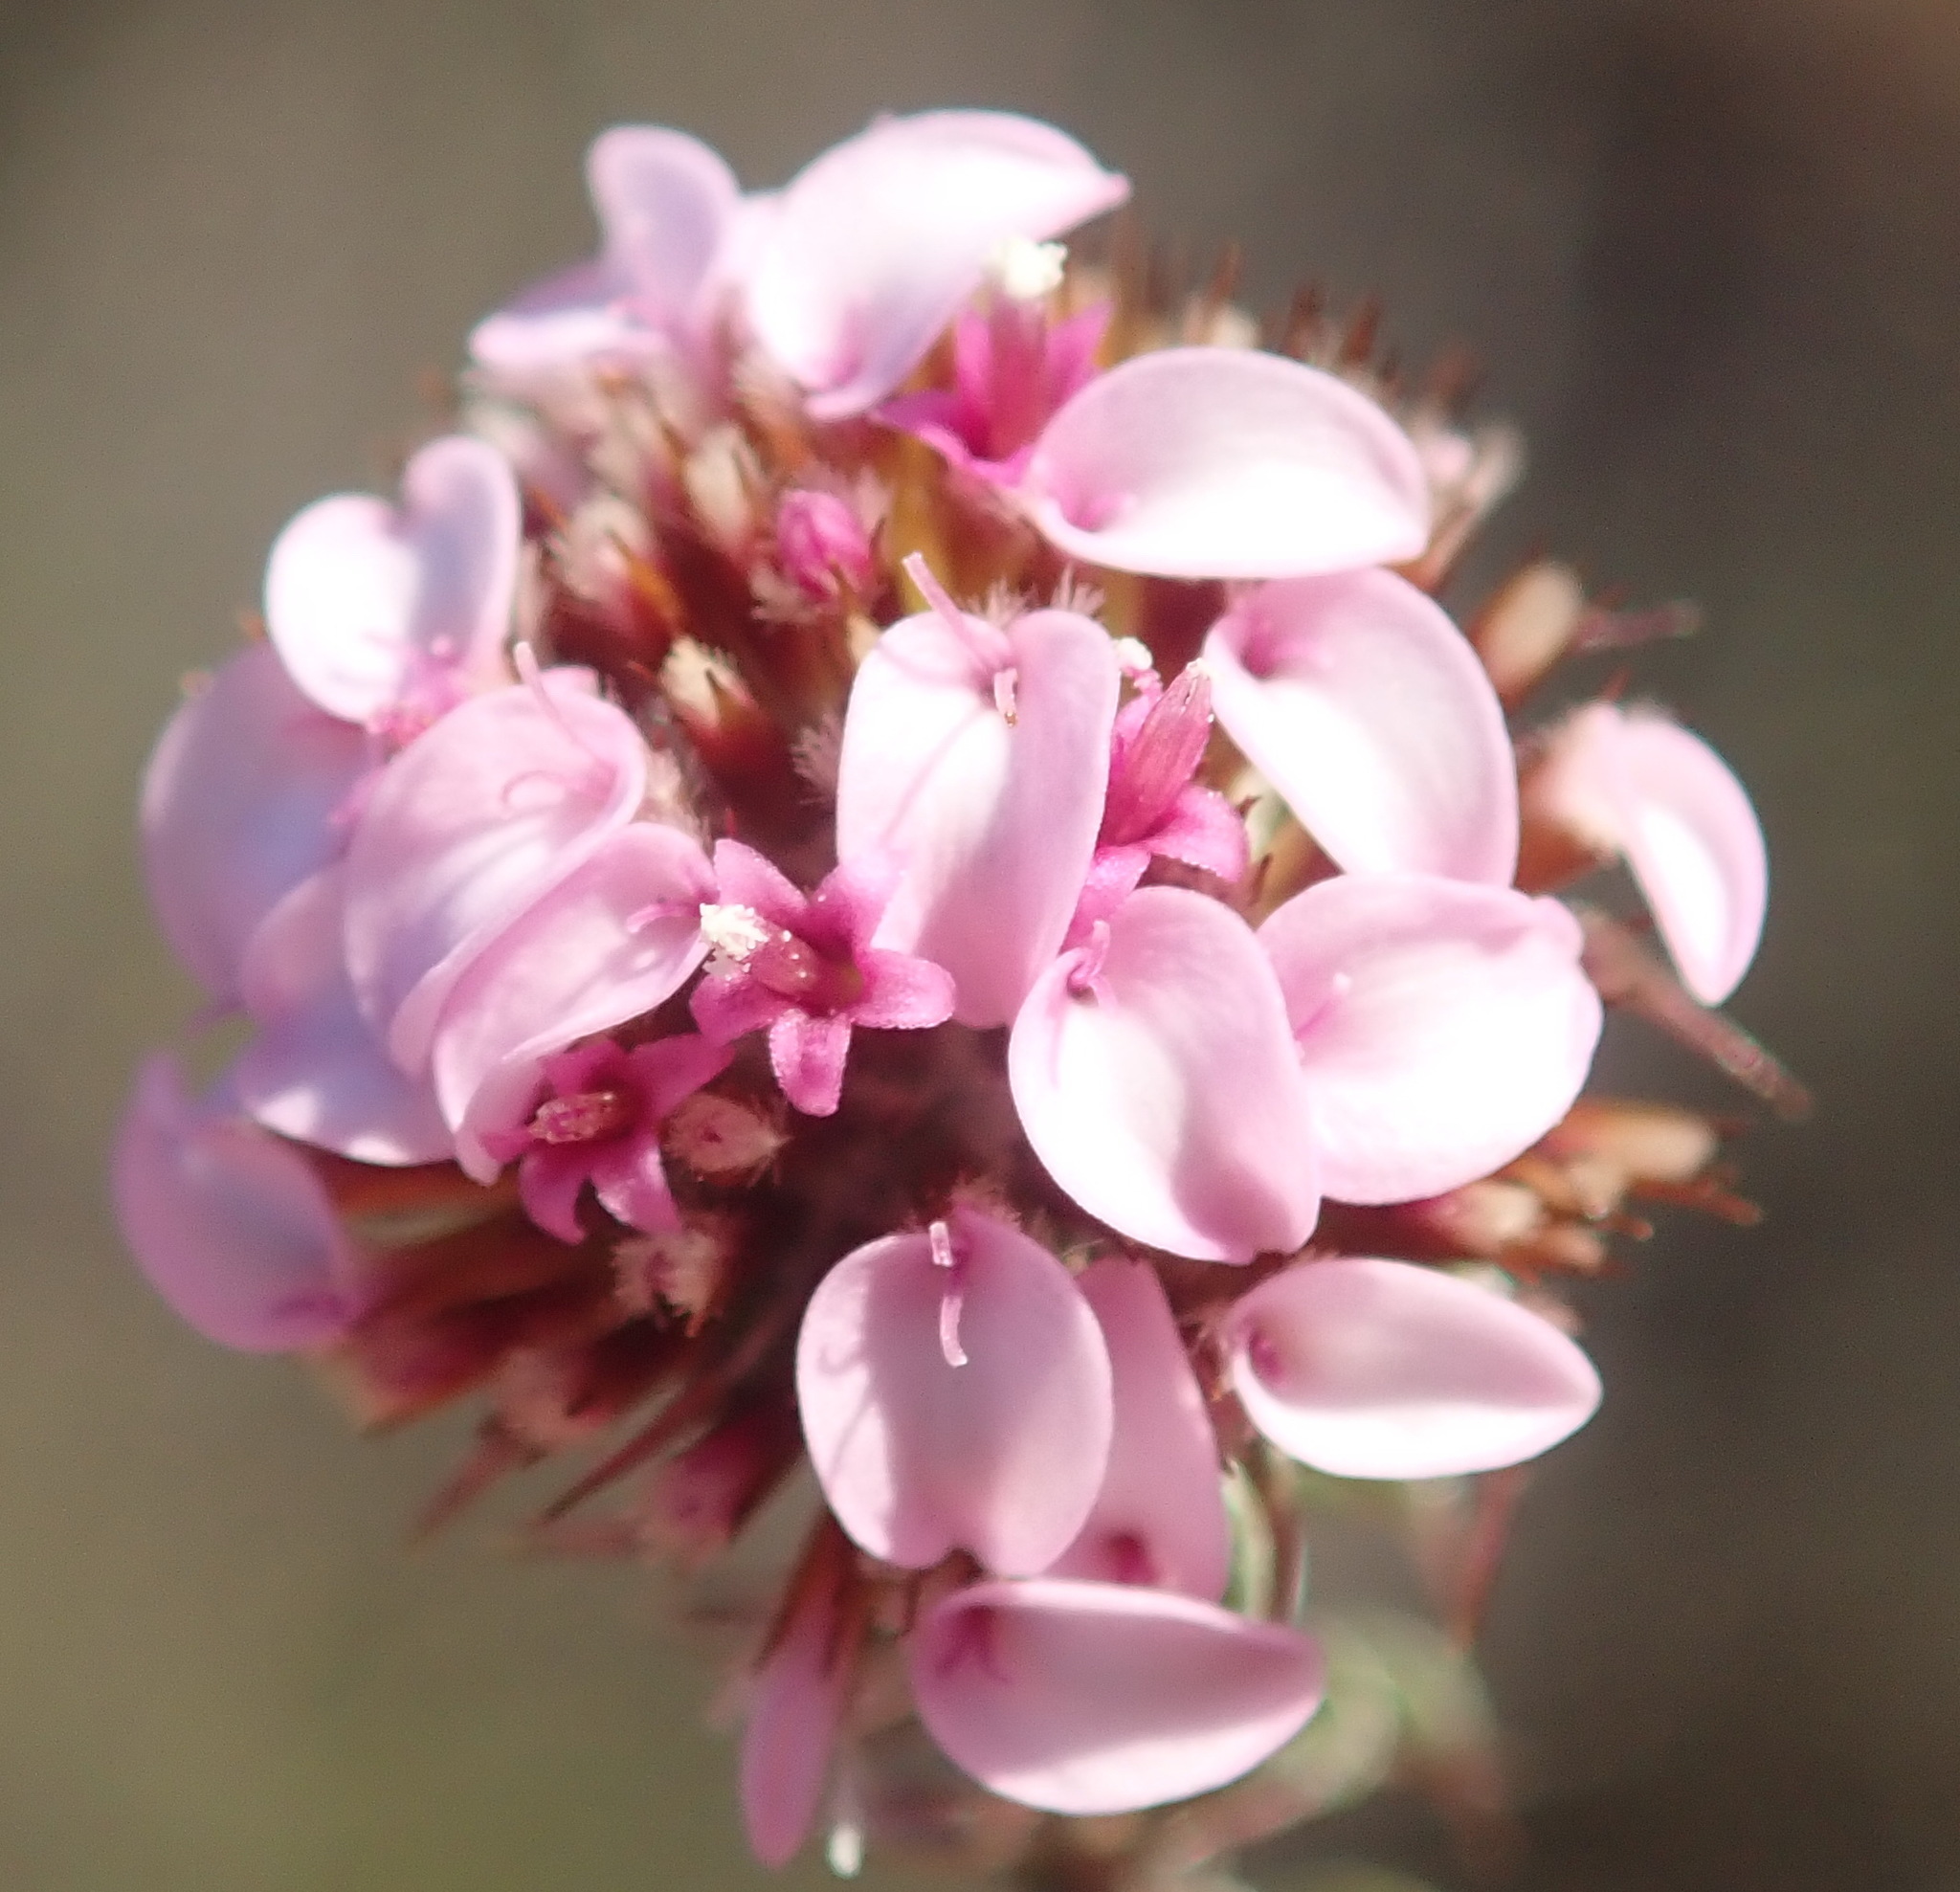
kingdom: Plantae
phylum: Tracheophyta
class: Magnoliopsida
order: Asterales
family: Asteraceae
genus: Disparago
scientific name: Disparago tortilis
